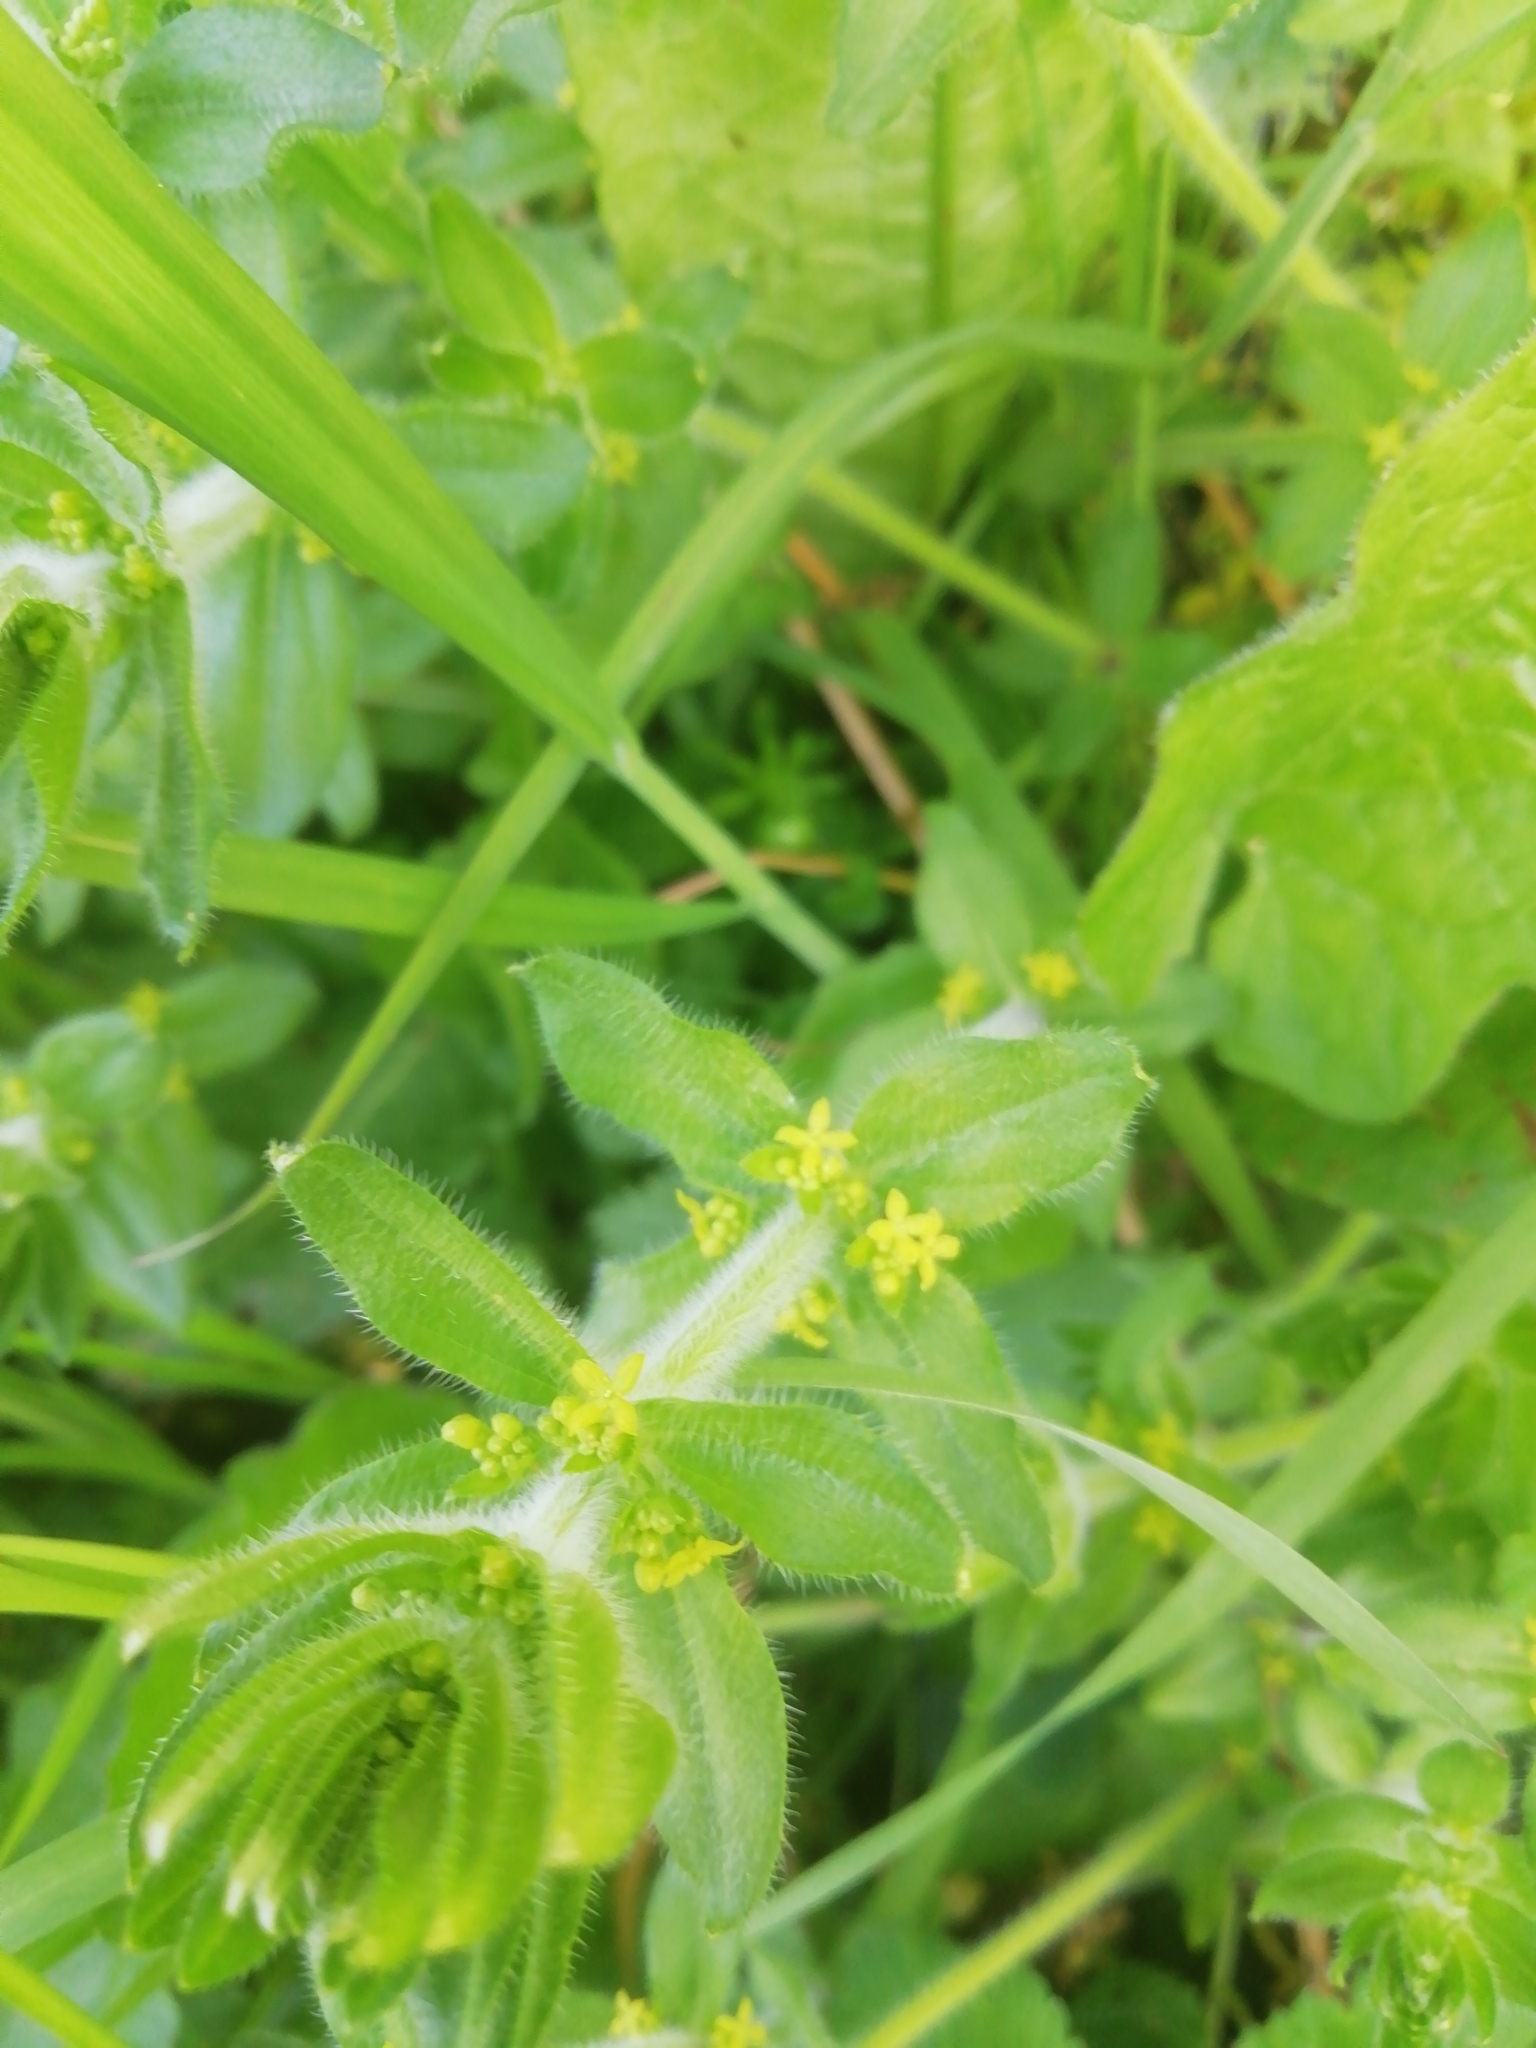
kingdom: Plantae
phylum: Tracheophyta
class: Magnoliopsida
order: Gentianales
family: Rubiaceae
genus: Cruciata
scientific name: Cruciata laevipes
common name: Crosswort
